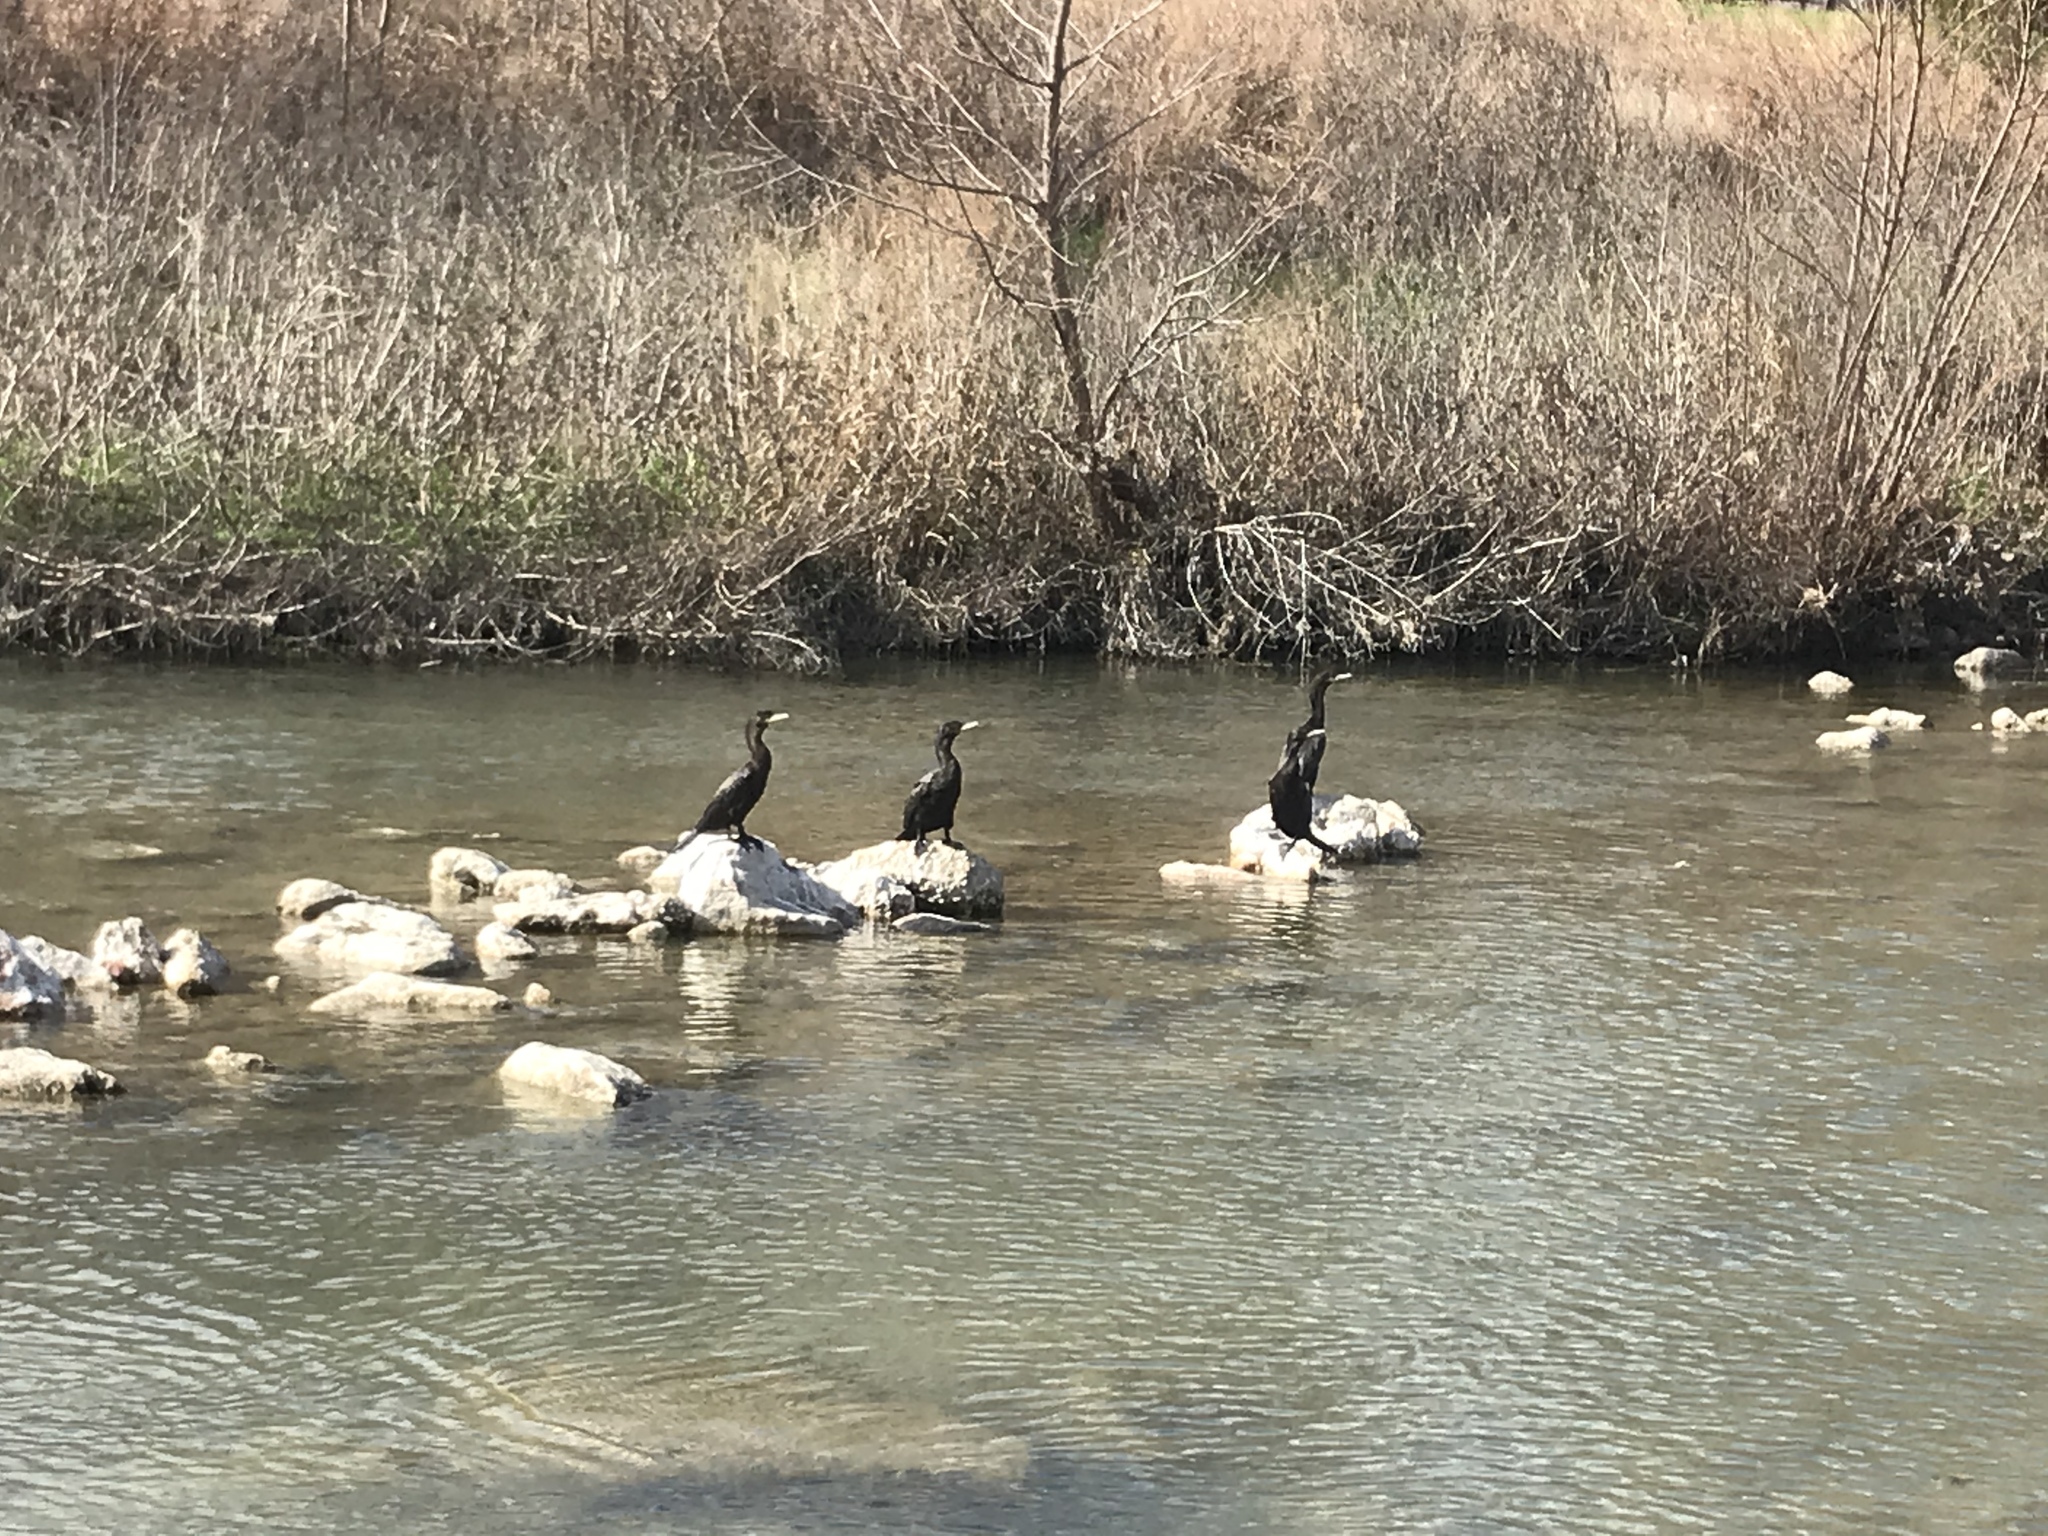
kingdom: Animalia
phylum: Chordata
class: Aves
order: Suliformes
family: Phalacrocoracidae
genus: Phalacrocorax
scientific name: Phalacrocorax auritus
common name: Double-crested cormorant
